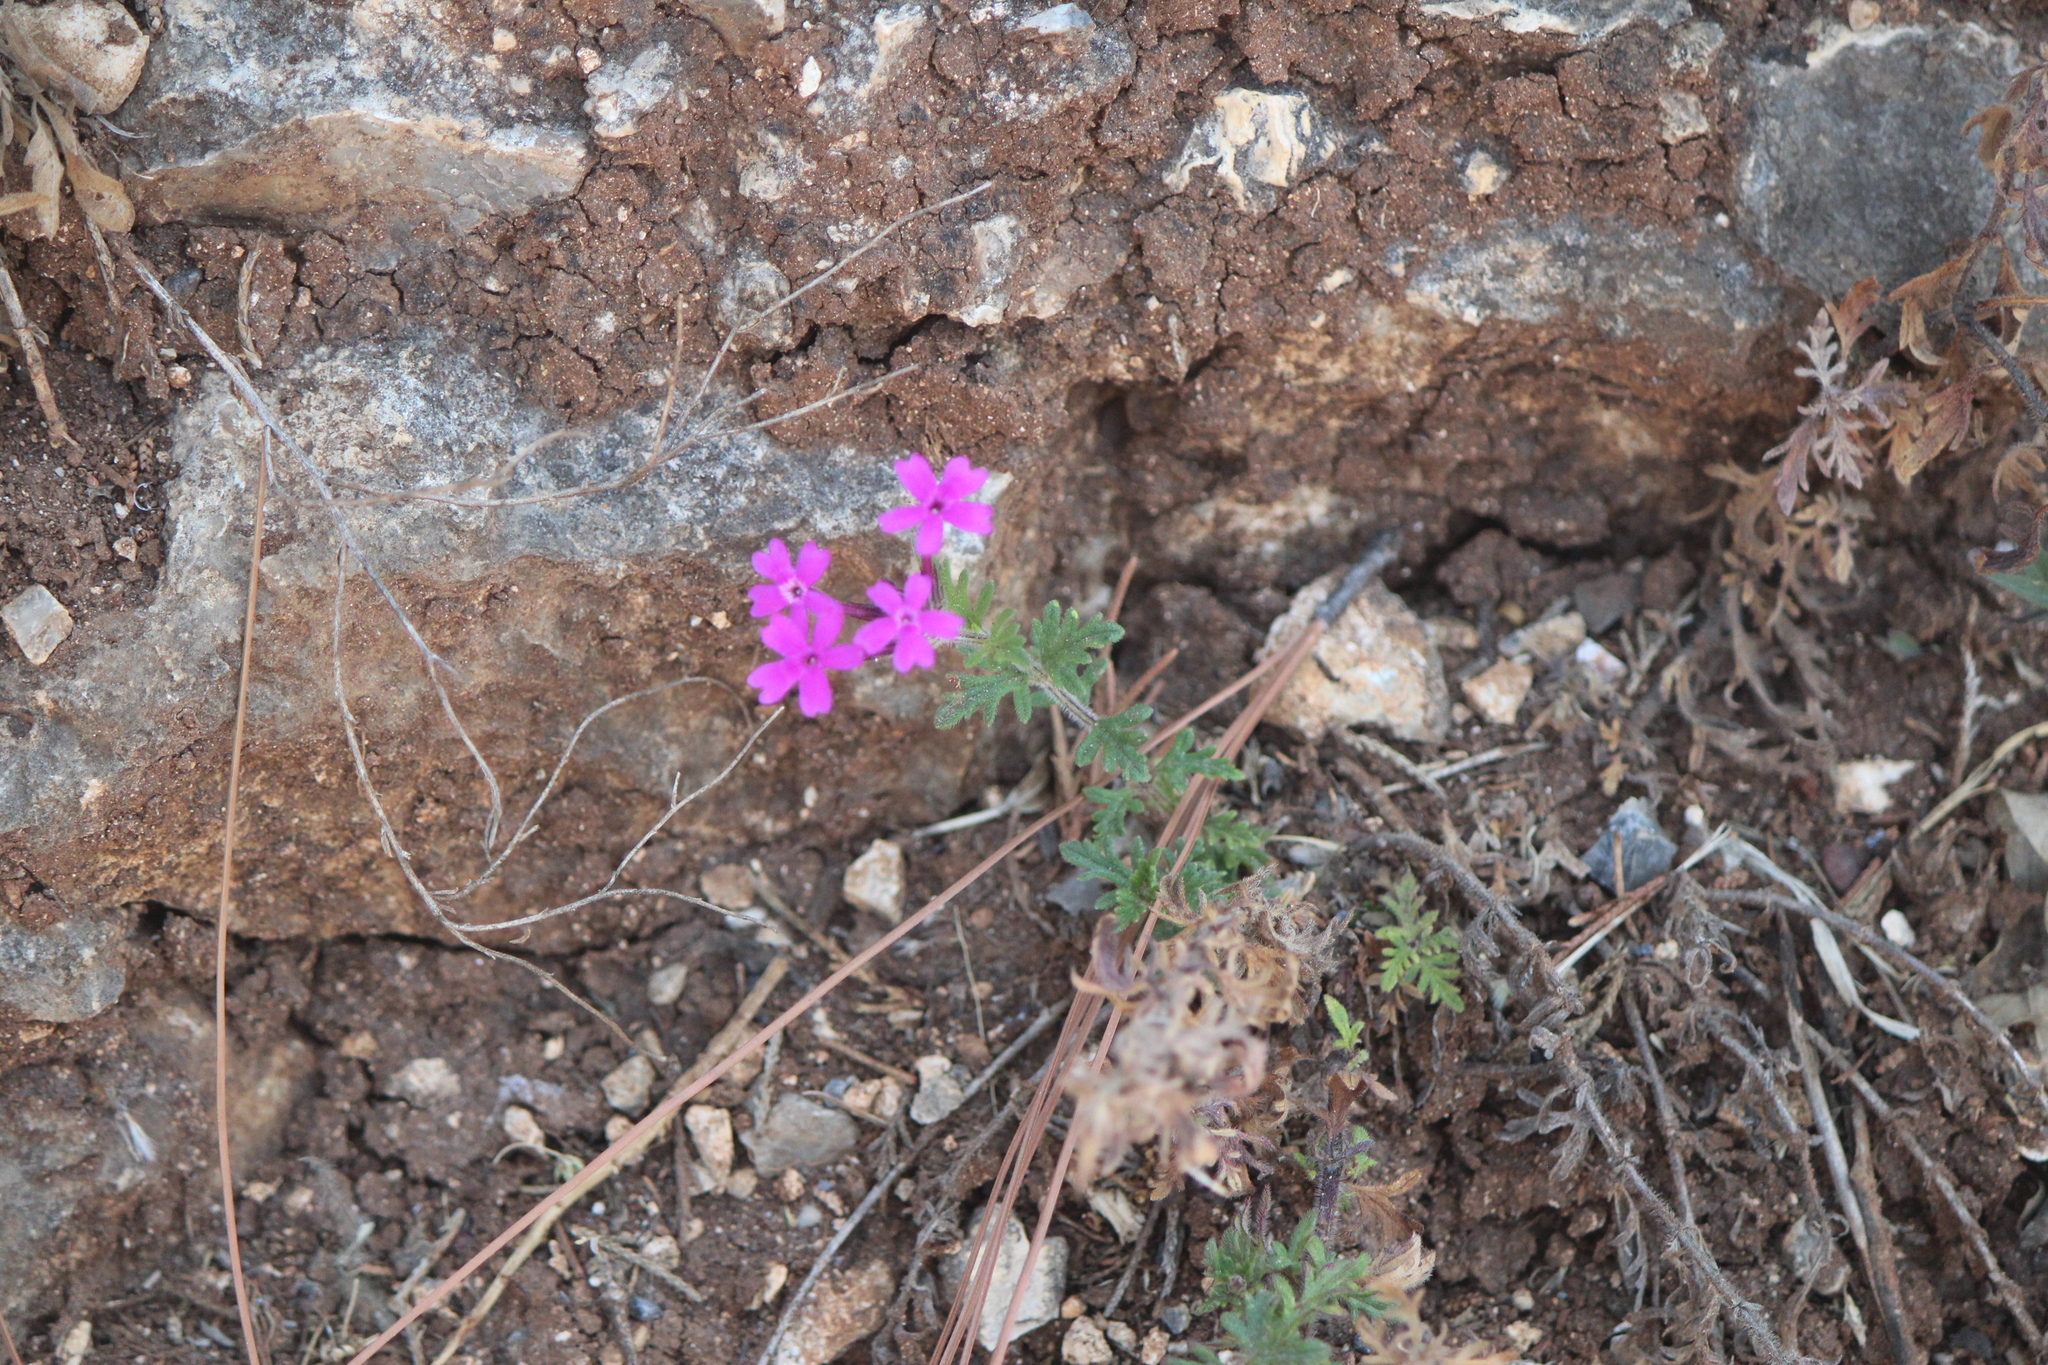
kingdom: Plantae
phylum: Tracheophyta
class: Magnoliopsida
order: Lamiales
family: Verbenaceae
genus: Verbena
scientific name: Verbena bipinnatifida
